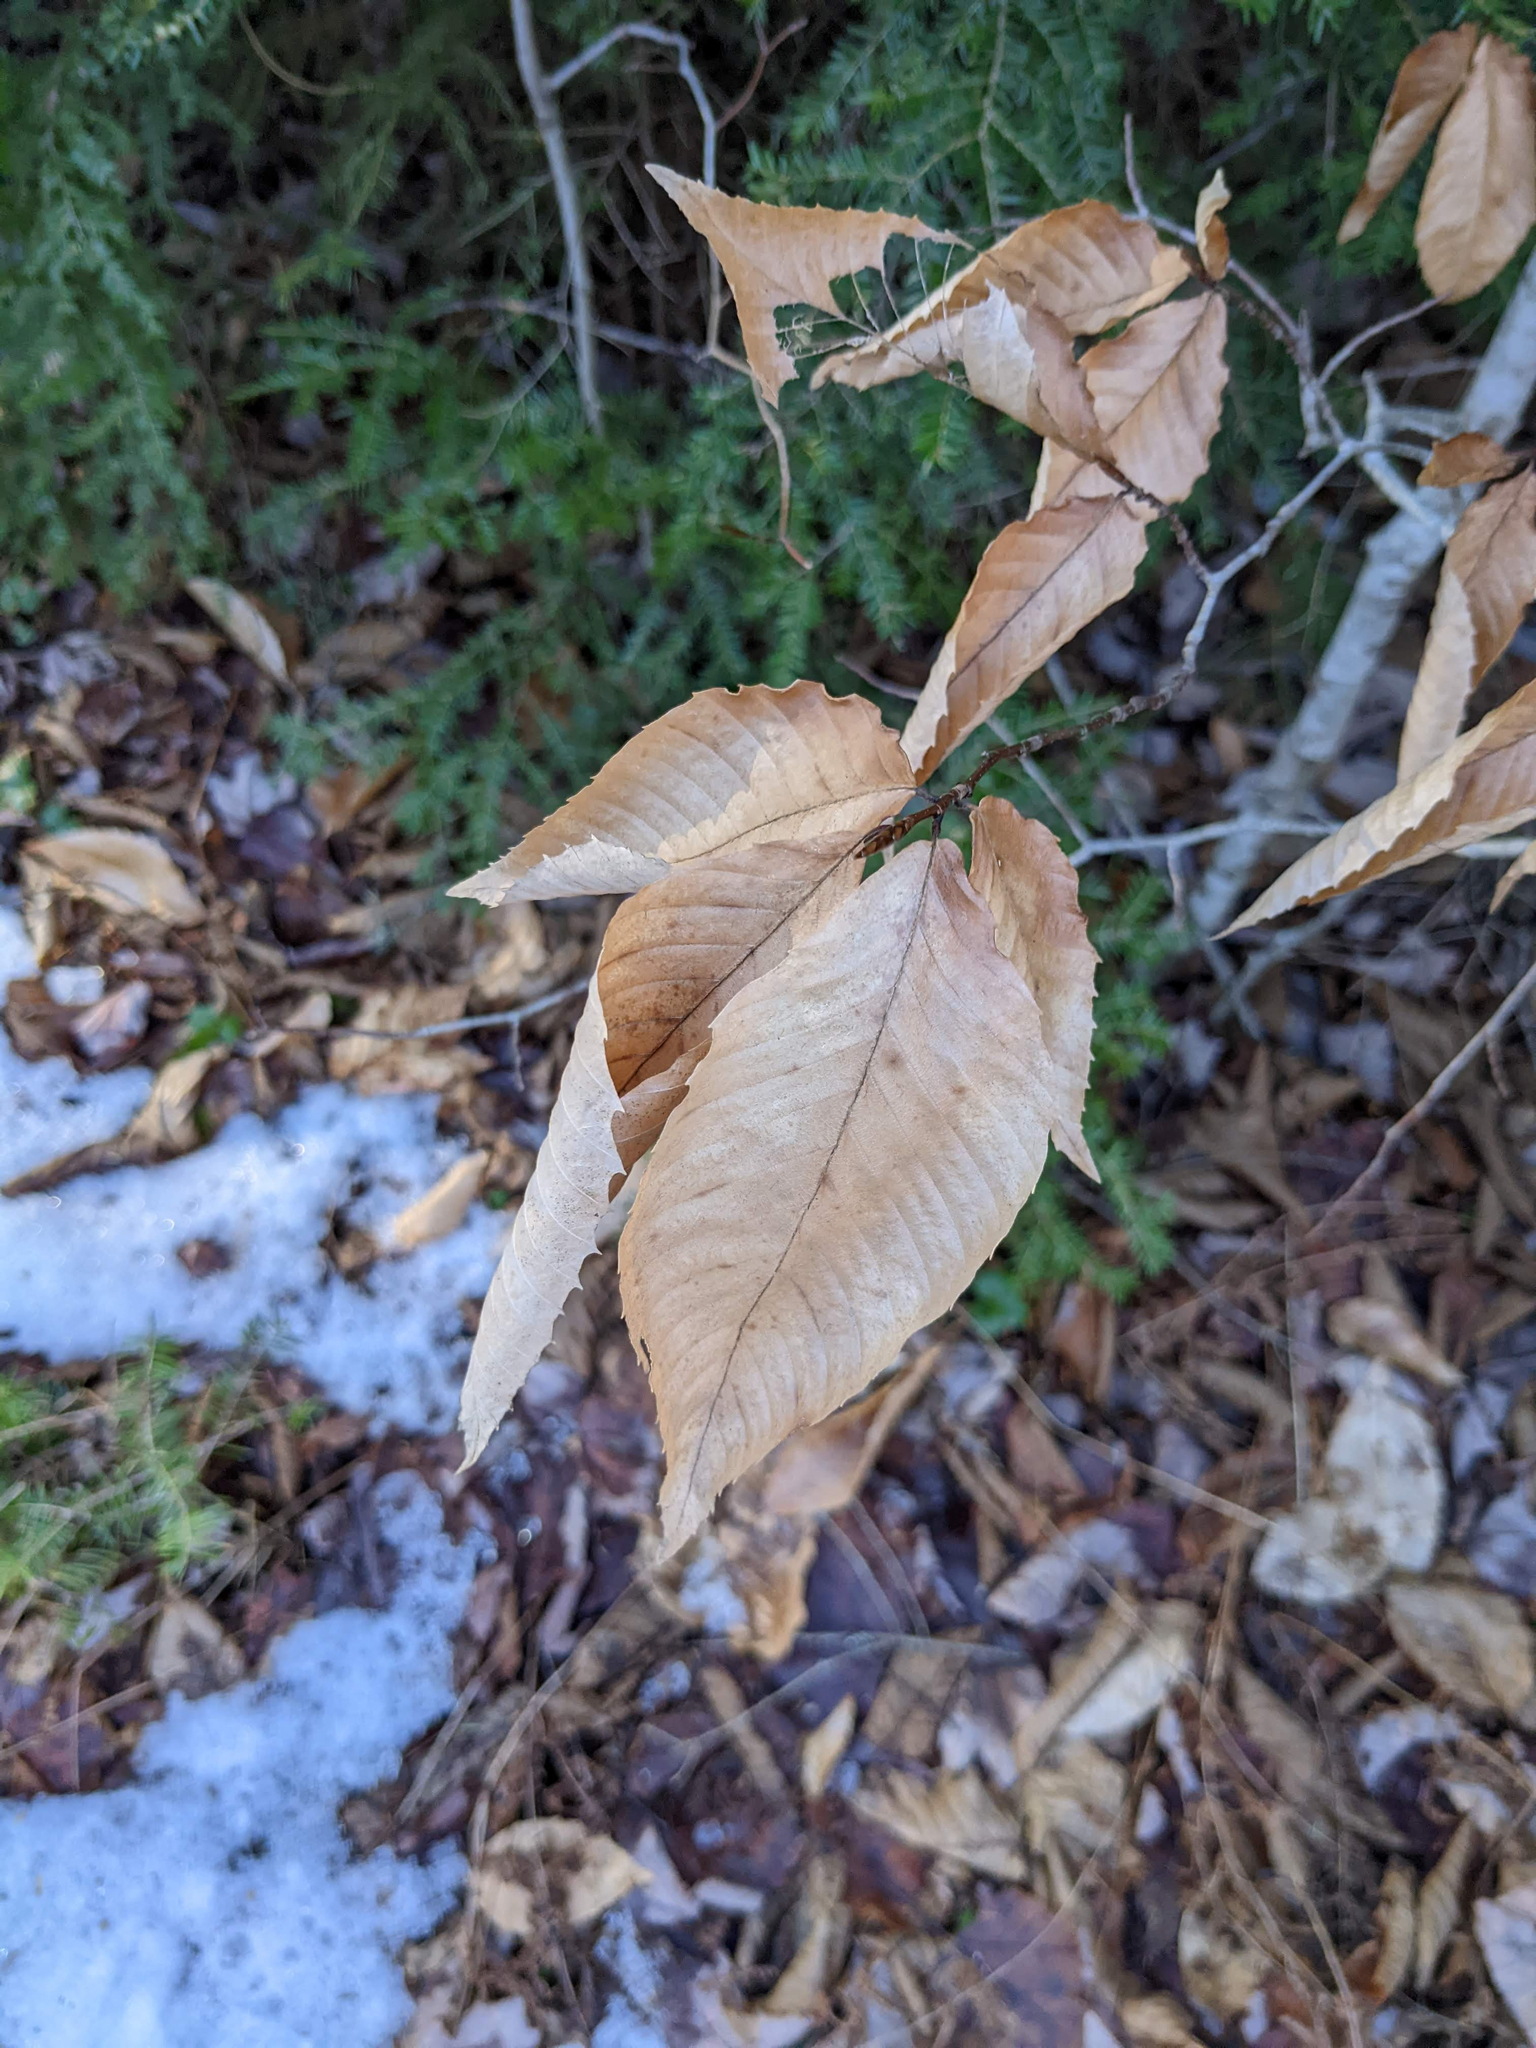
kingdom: Plantae
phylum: Tracheophyta
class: Magnoliopsida
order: Fagales
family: Fagaceae
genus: Fagus
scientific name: Fagus grandifolia
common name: American beech
